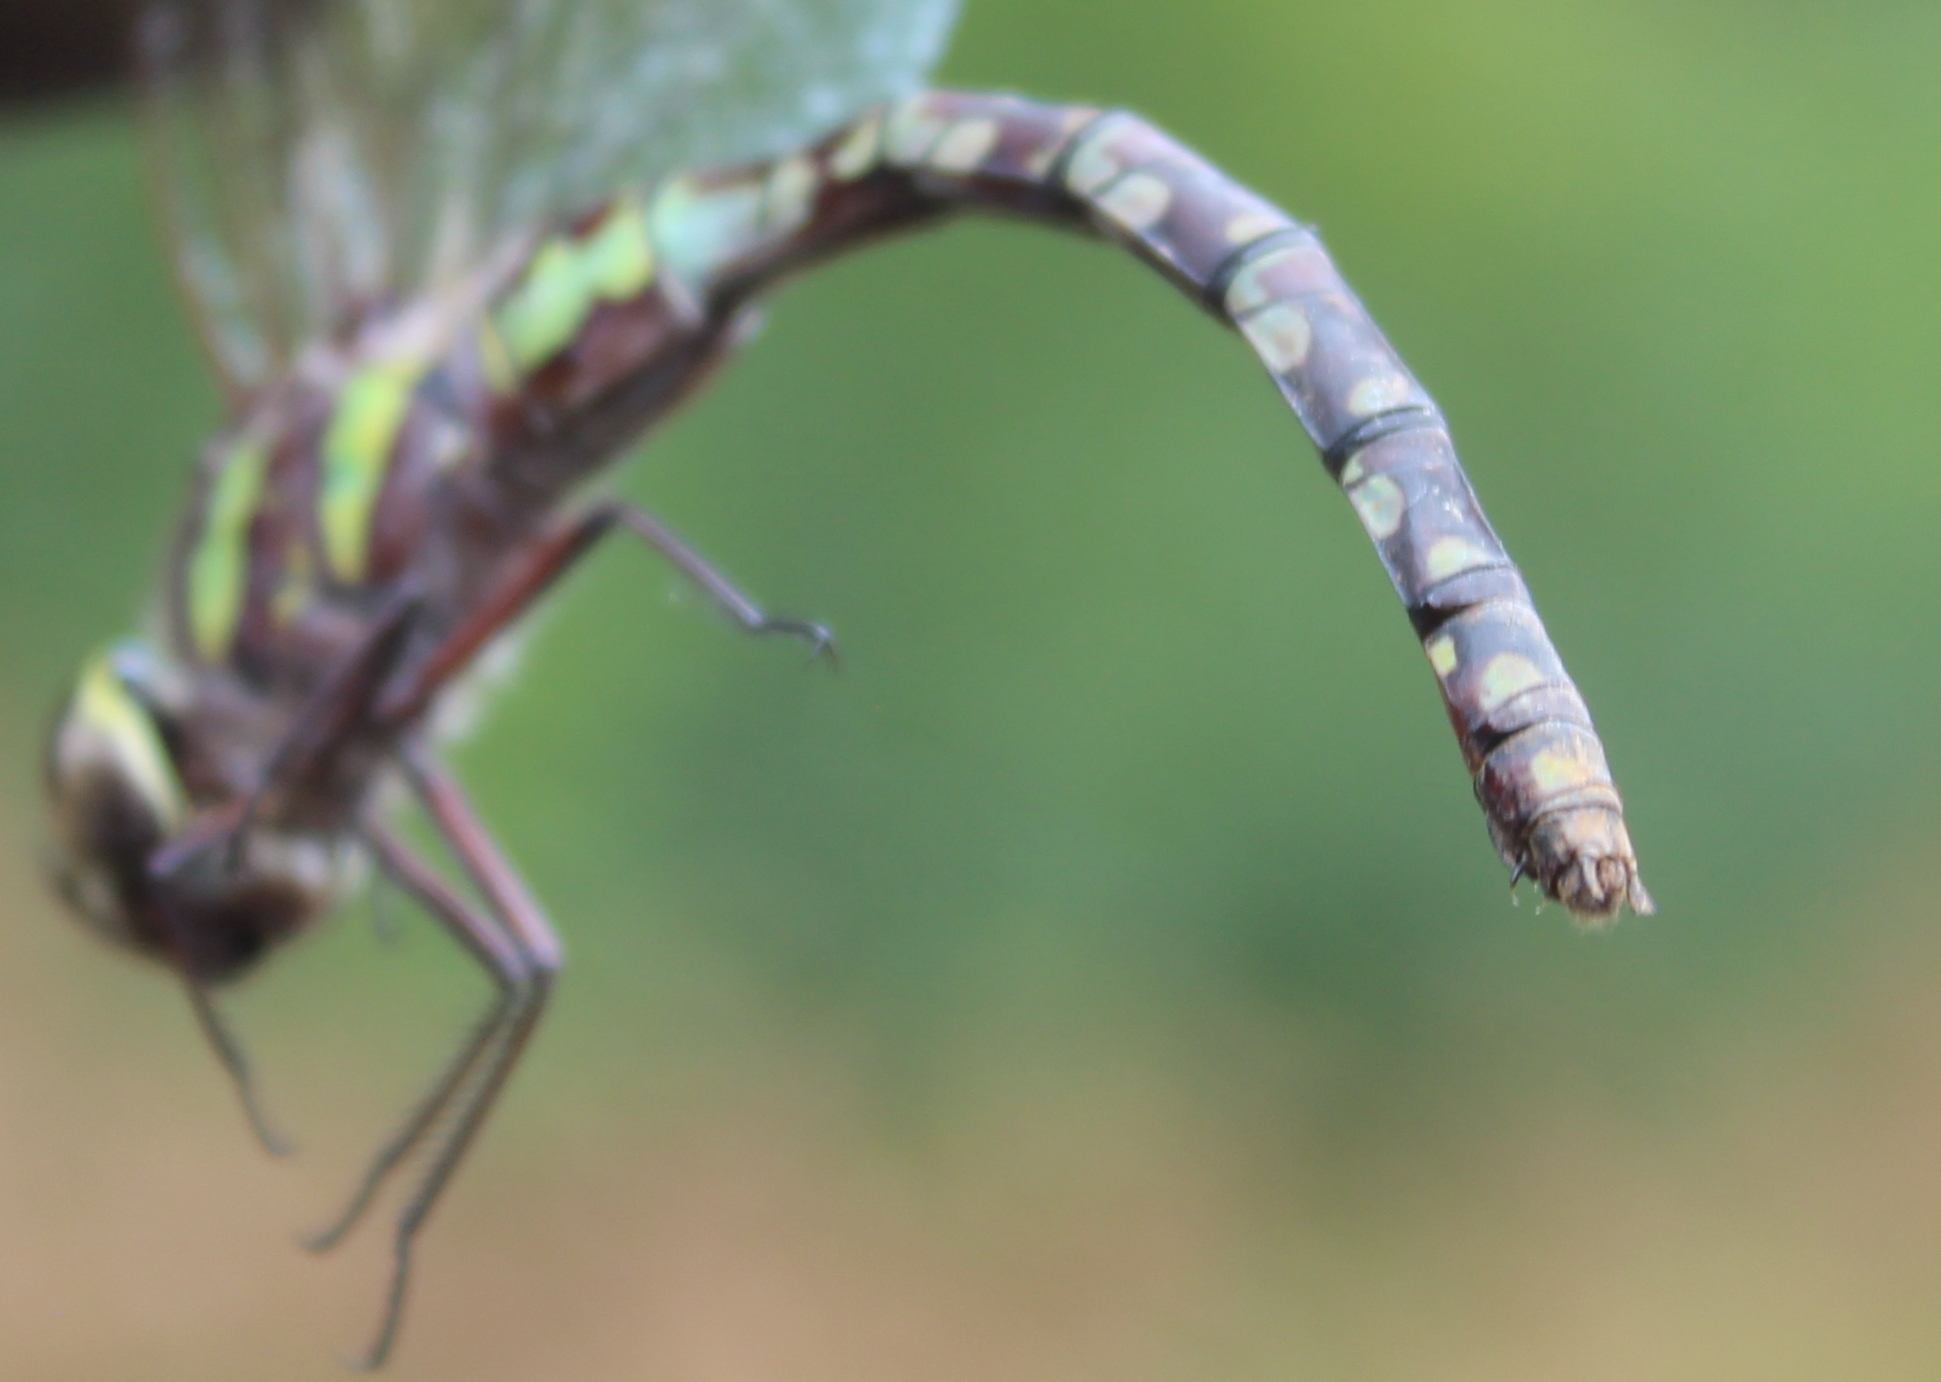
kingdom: Animalia
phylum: Arthropoda
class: Insecta
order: Odonata
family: Aeshnidae
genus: Aeshna
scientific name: Aeshna verticalis
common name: Green-striped darner
